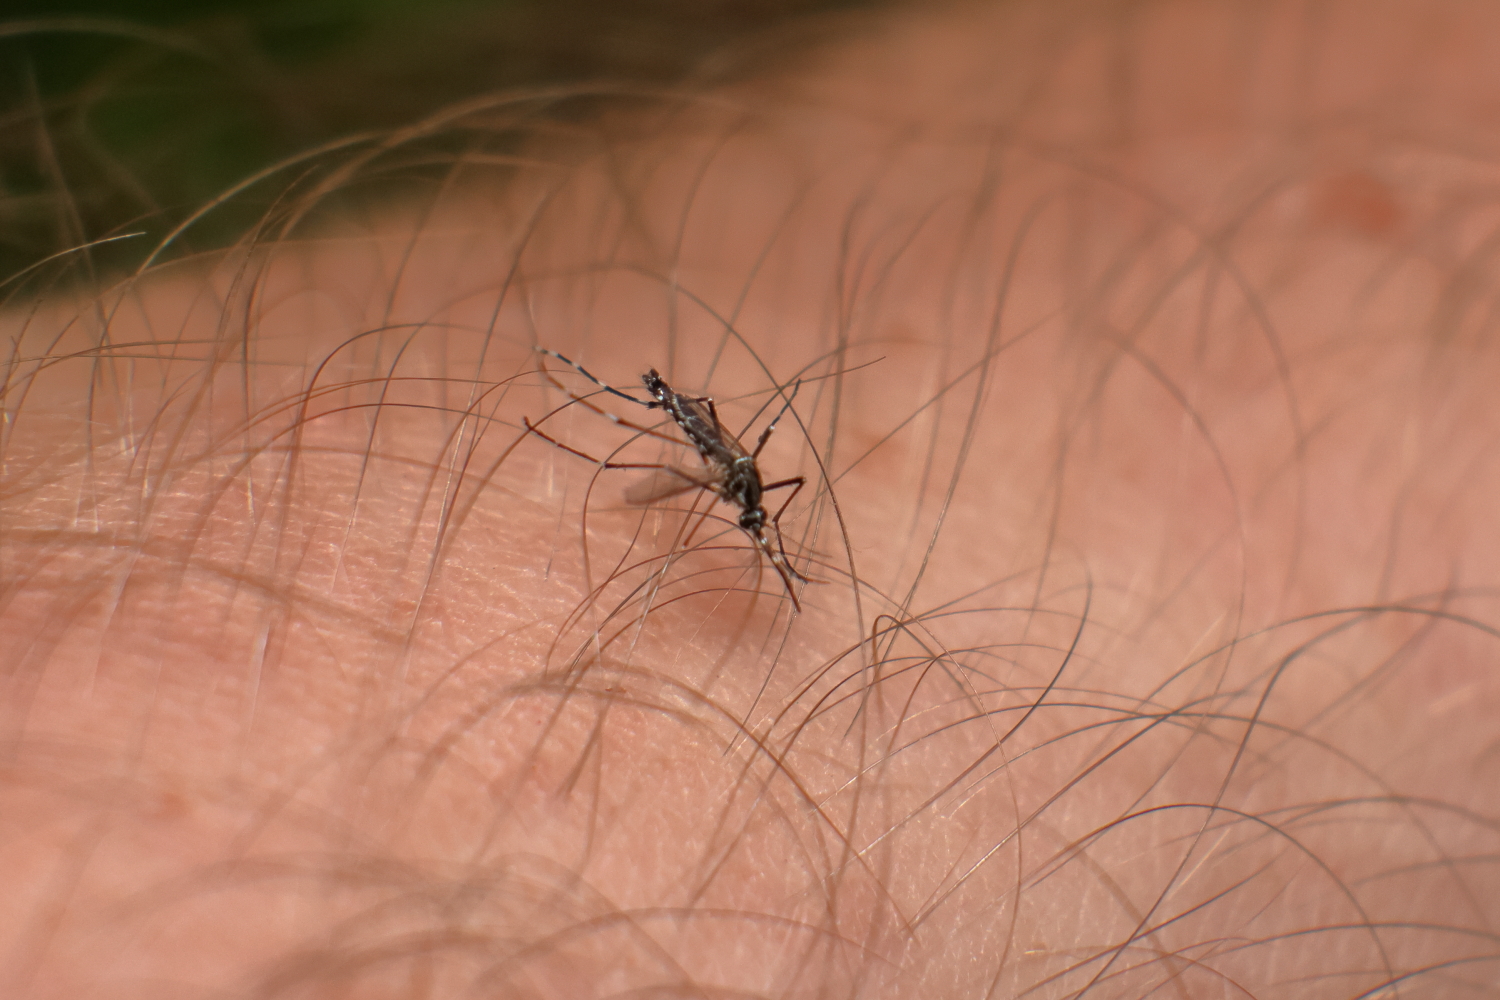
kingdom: Animalia
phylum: Arthropoda
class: Insecta
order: Diptera
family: Culicidae
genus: Aedes
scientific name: Aedes aegypti
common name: Yellow fever mosquito
